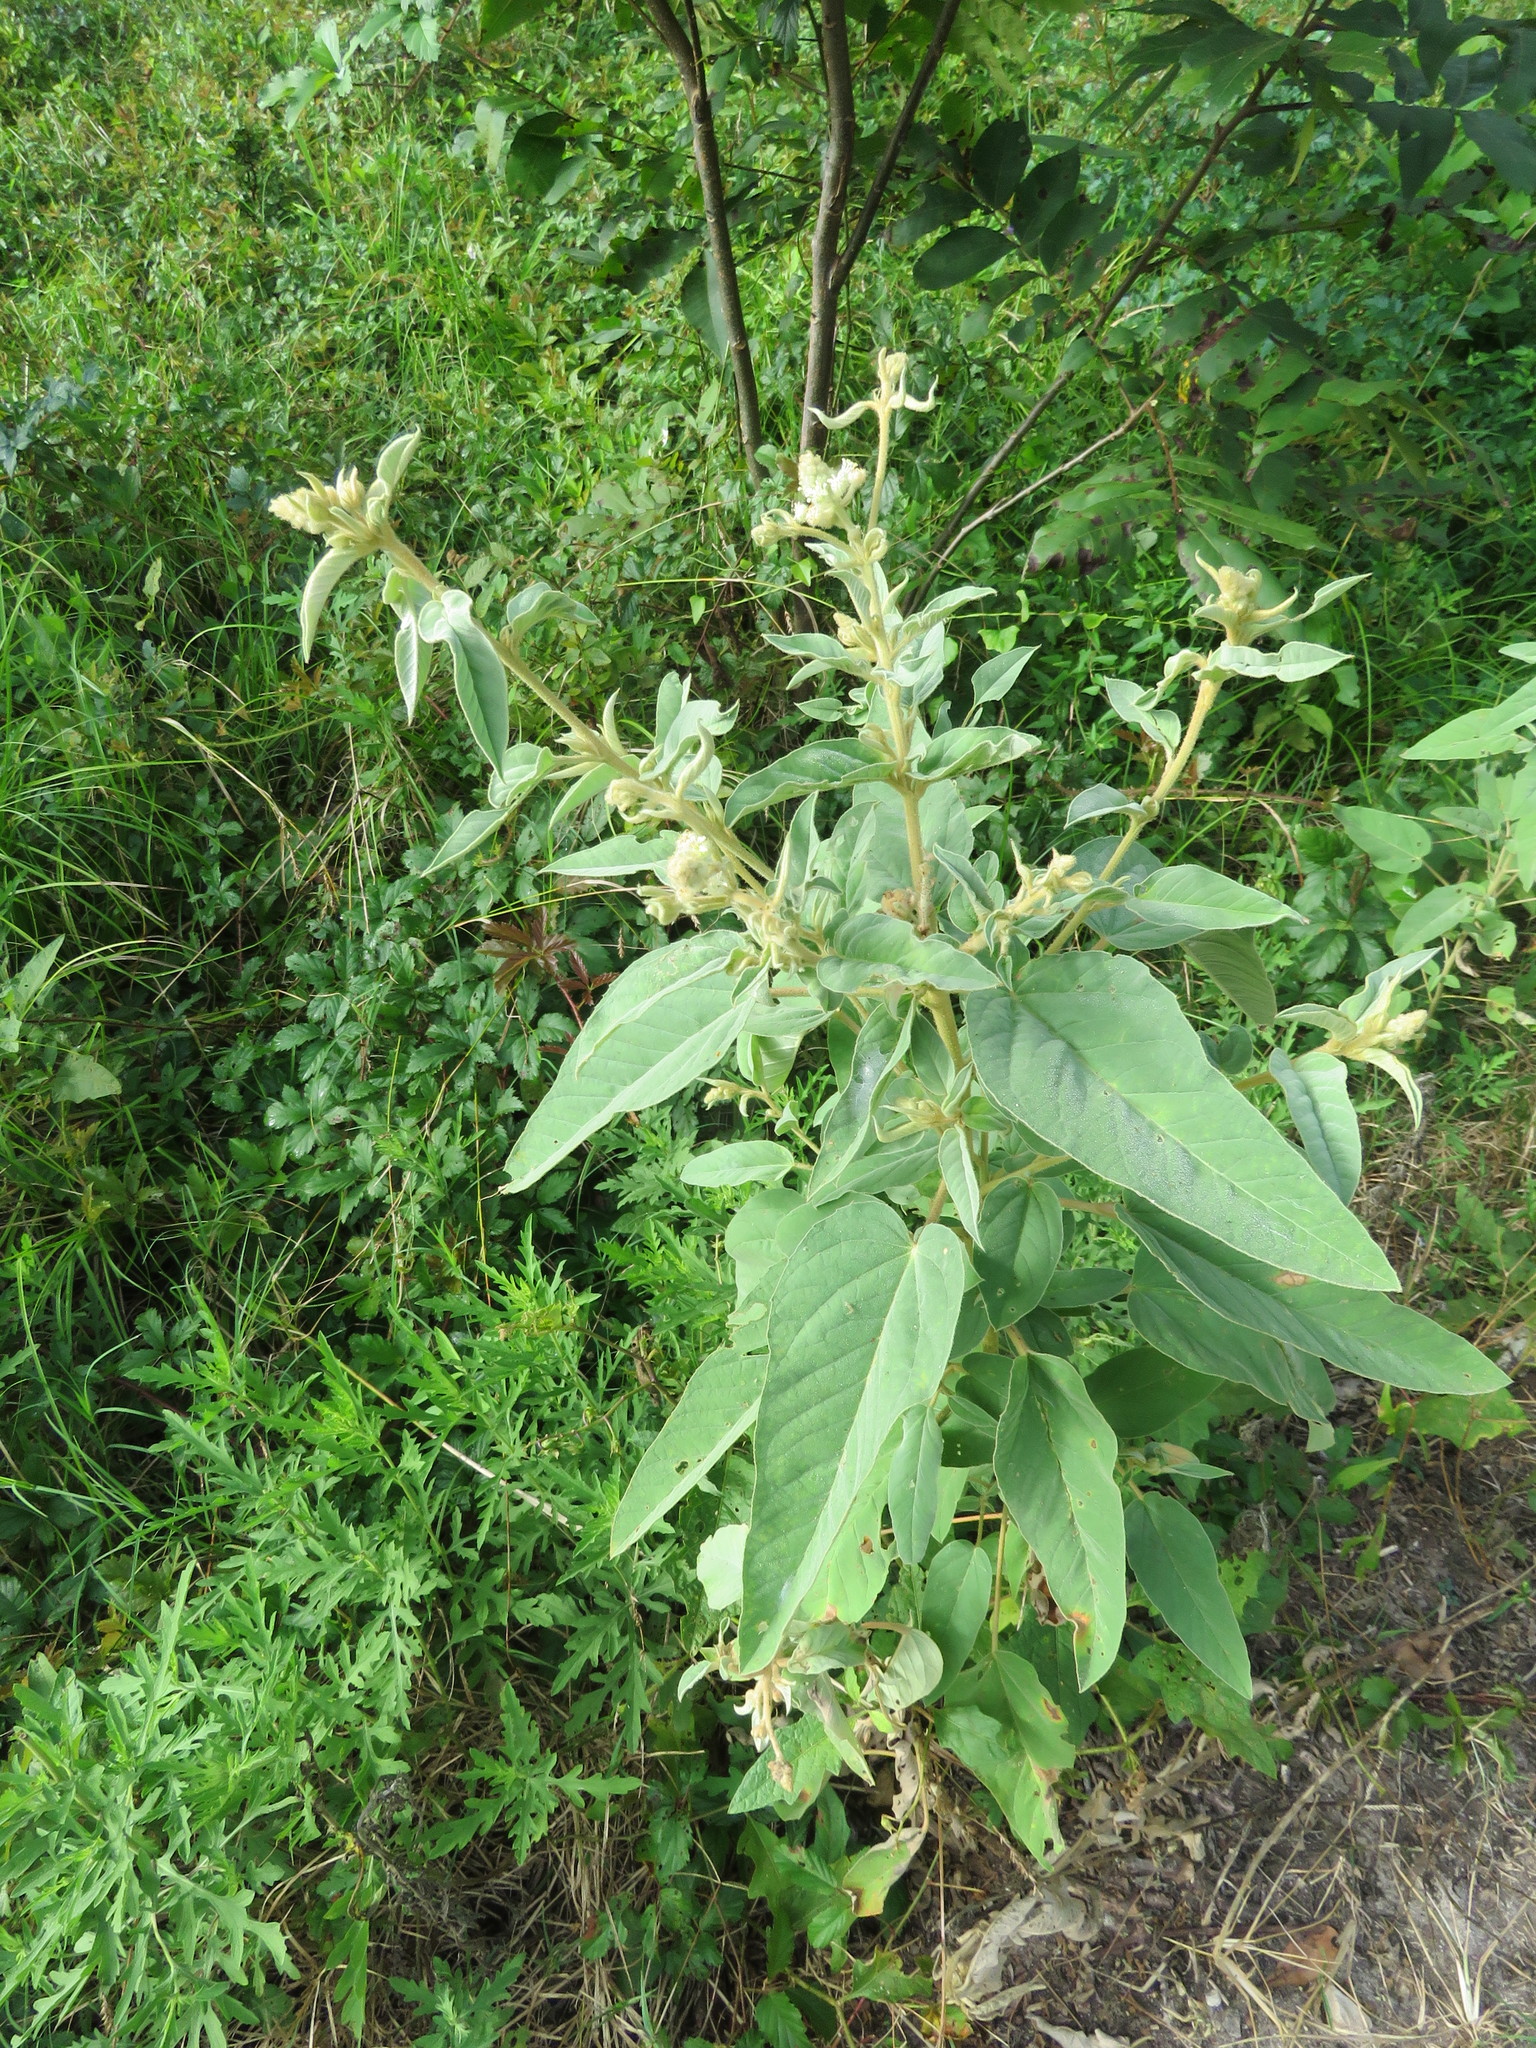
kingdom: Plantae
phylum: Tracheophyta
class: Magnoliopsida
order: Malpighiales
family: Euphorbiaceae
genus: Croton
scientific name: Croton lindheimeri
